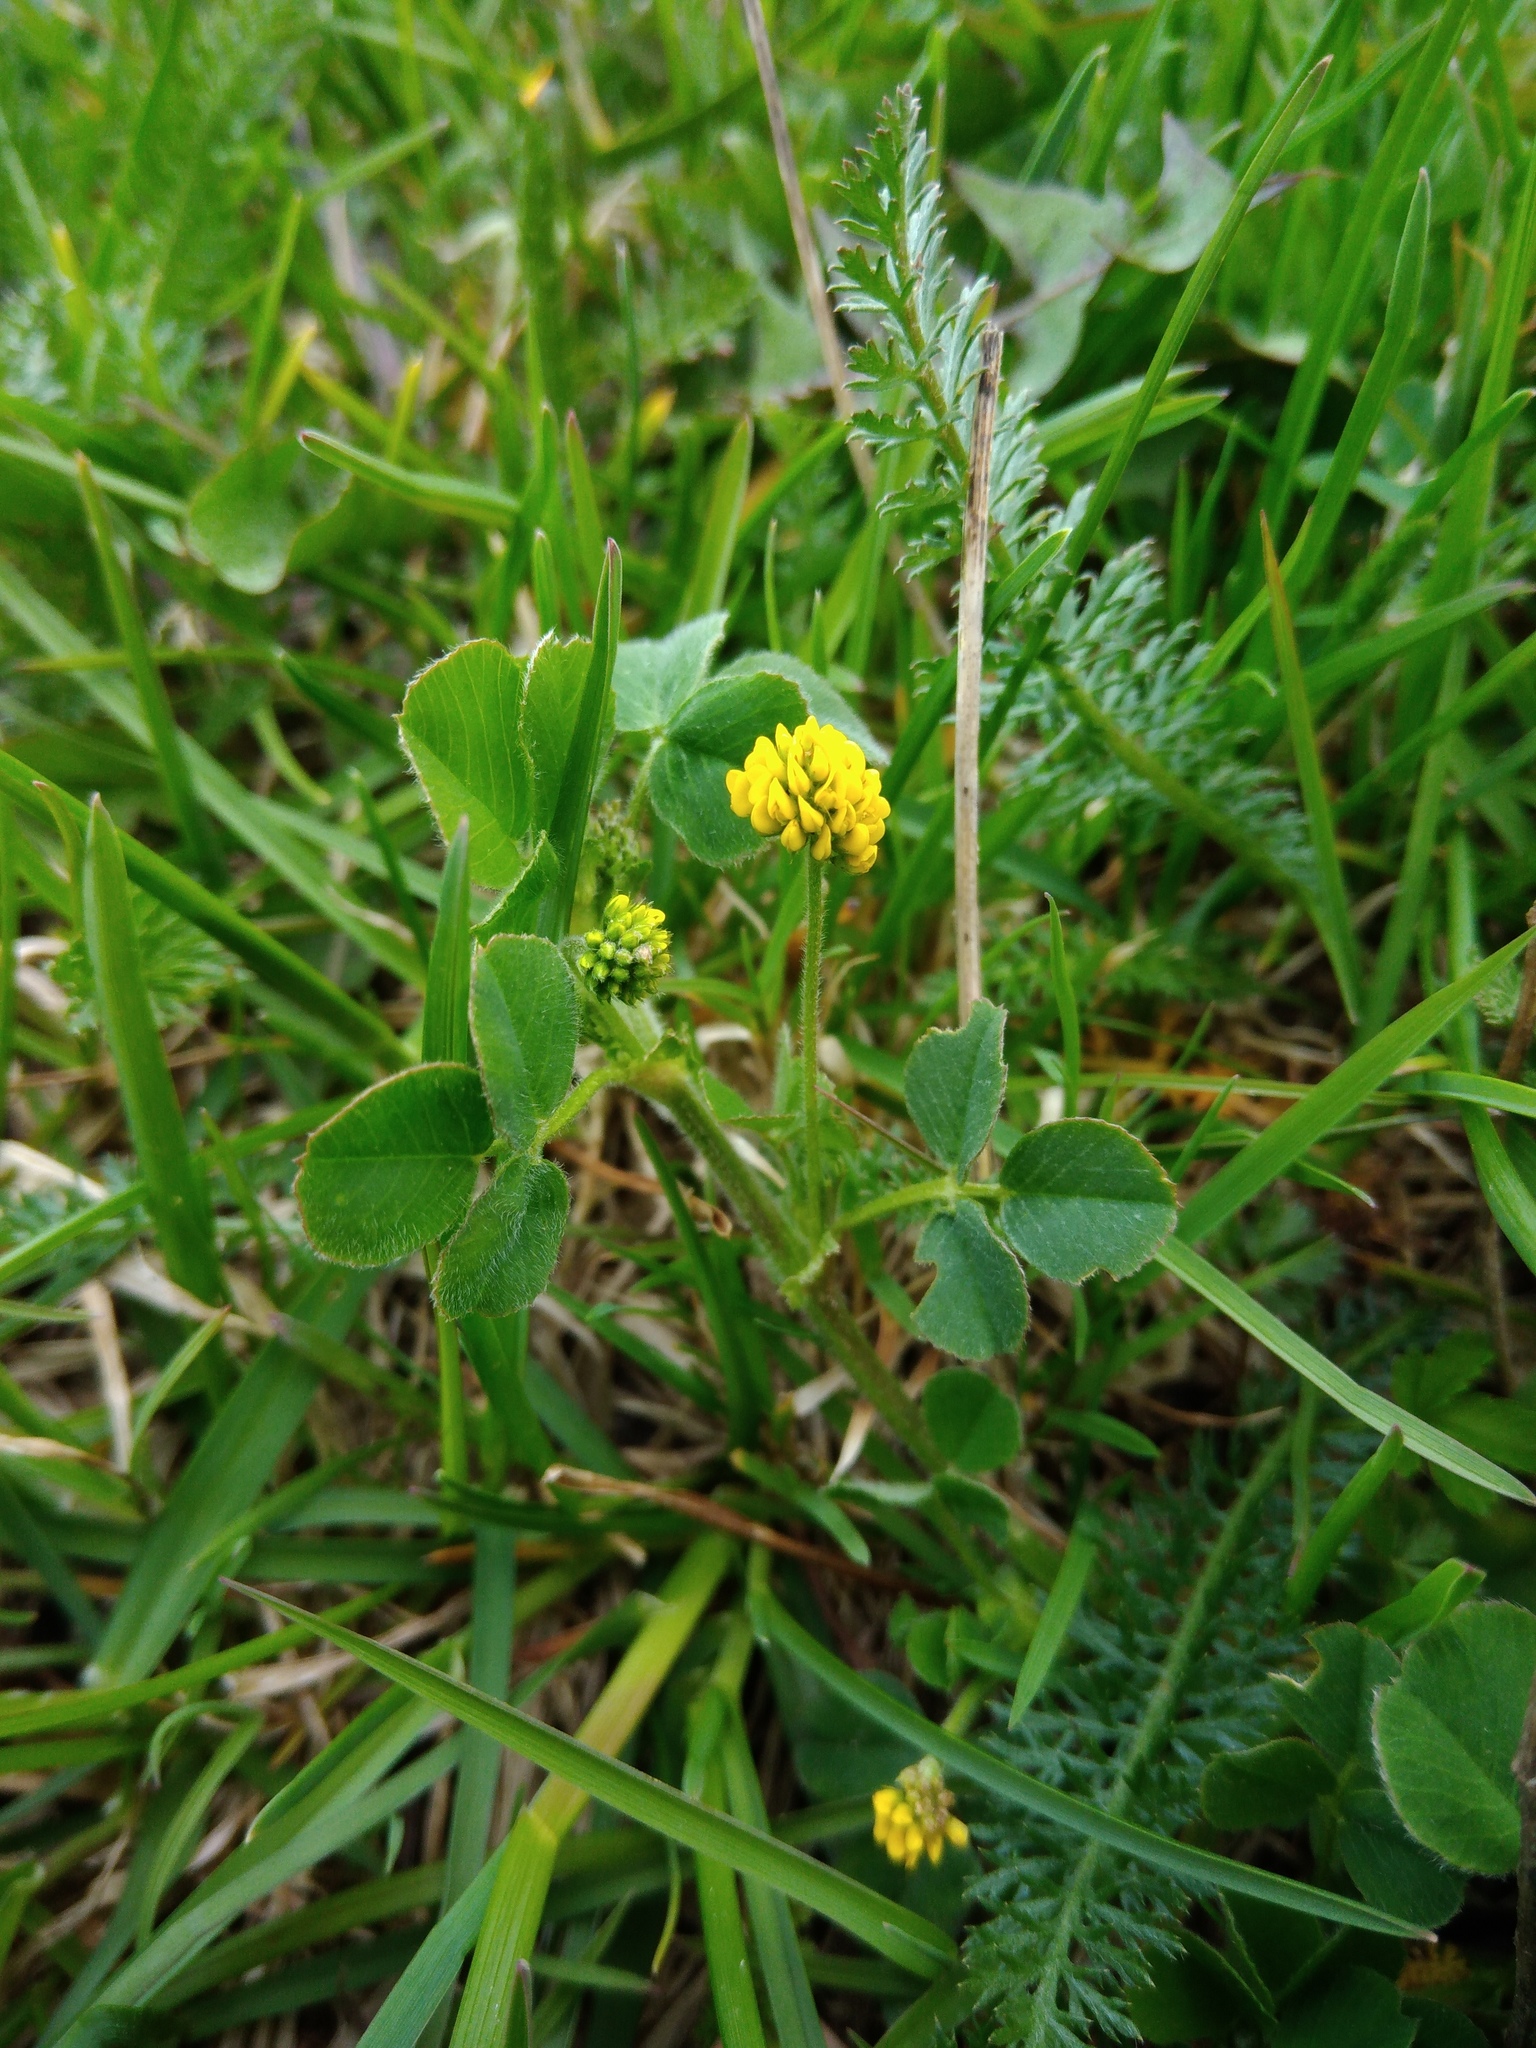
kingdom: Plantae
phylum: Tracheophyta
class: Magnoliopsida
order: Fabales
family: Fabaceae
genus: Medicago
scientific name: Medicago lupulina
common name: Black medick
